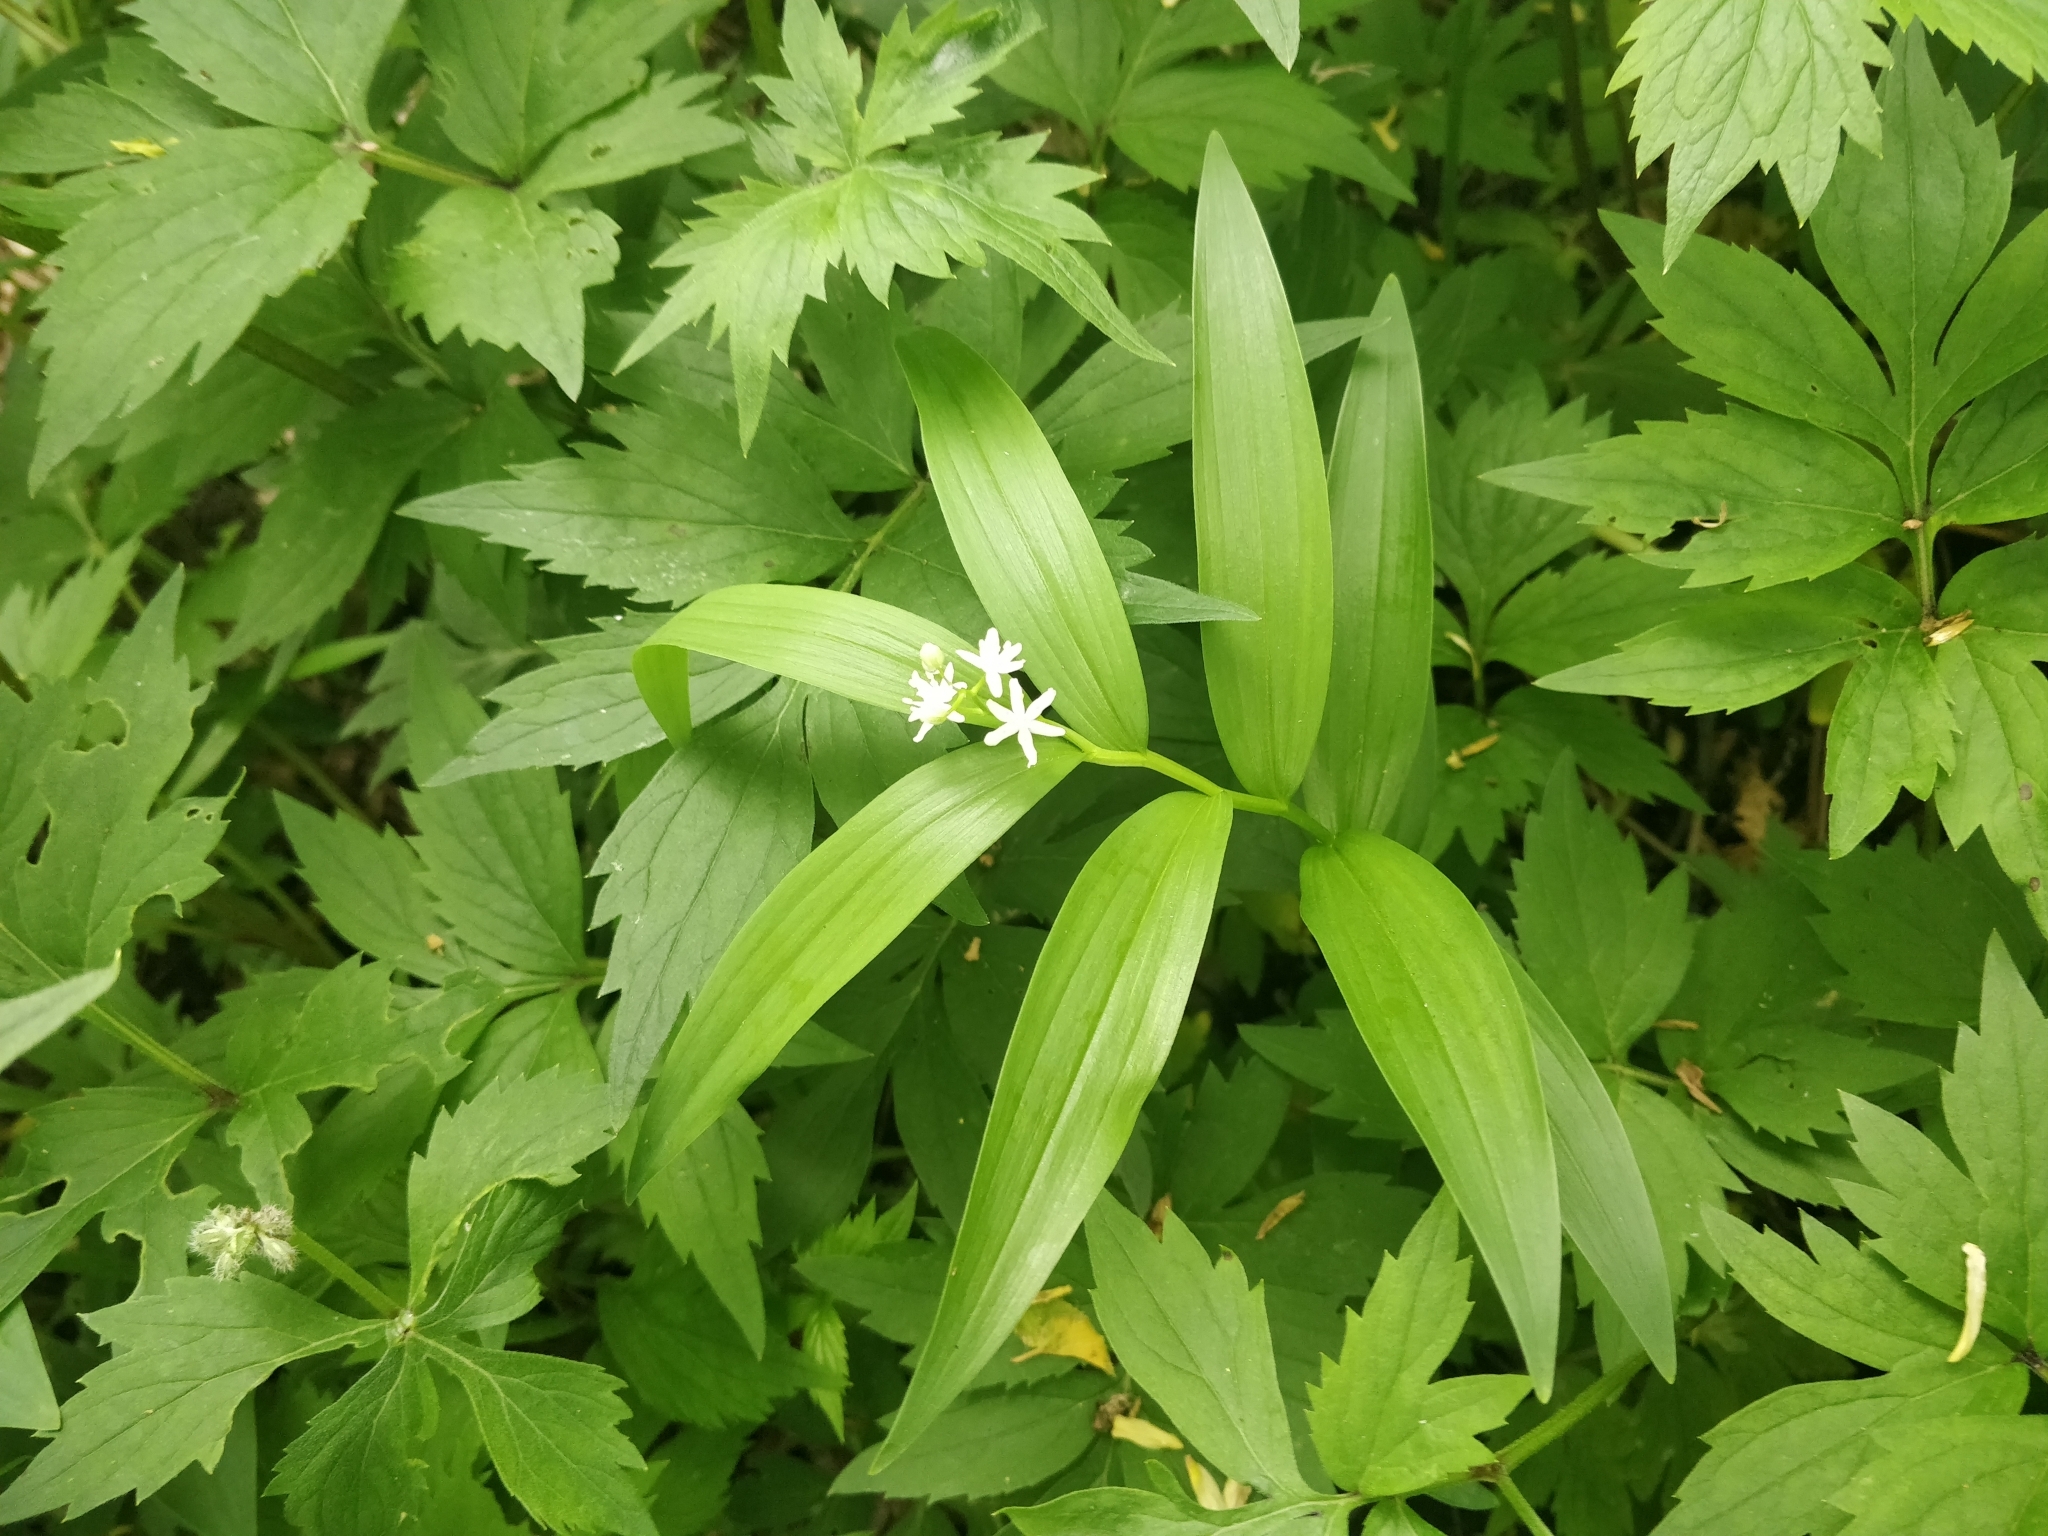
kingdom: Plantae
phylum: Tracheophyta
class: Liliopsida
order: Asparagales
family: Asparagaceae
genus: Maianthemum
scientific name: Maianthemum stellatum
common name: Little false solomon's seal
